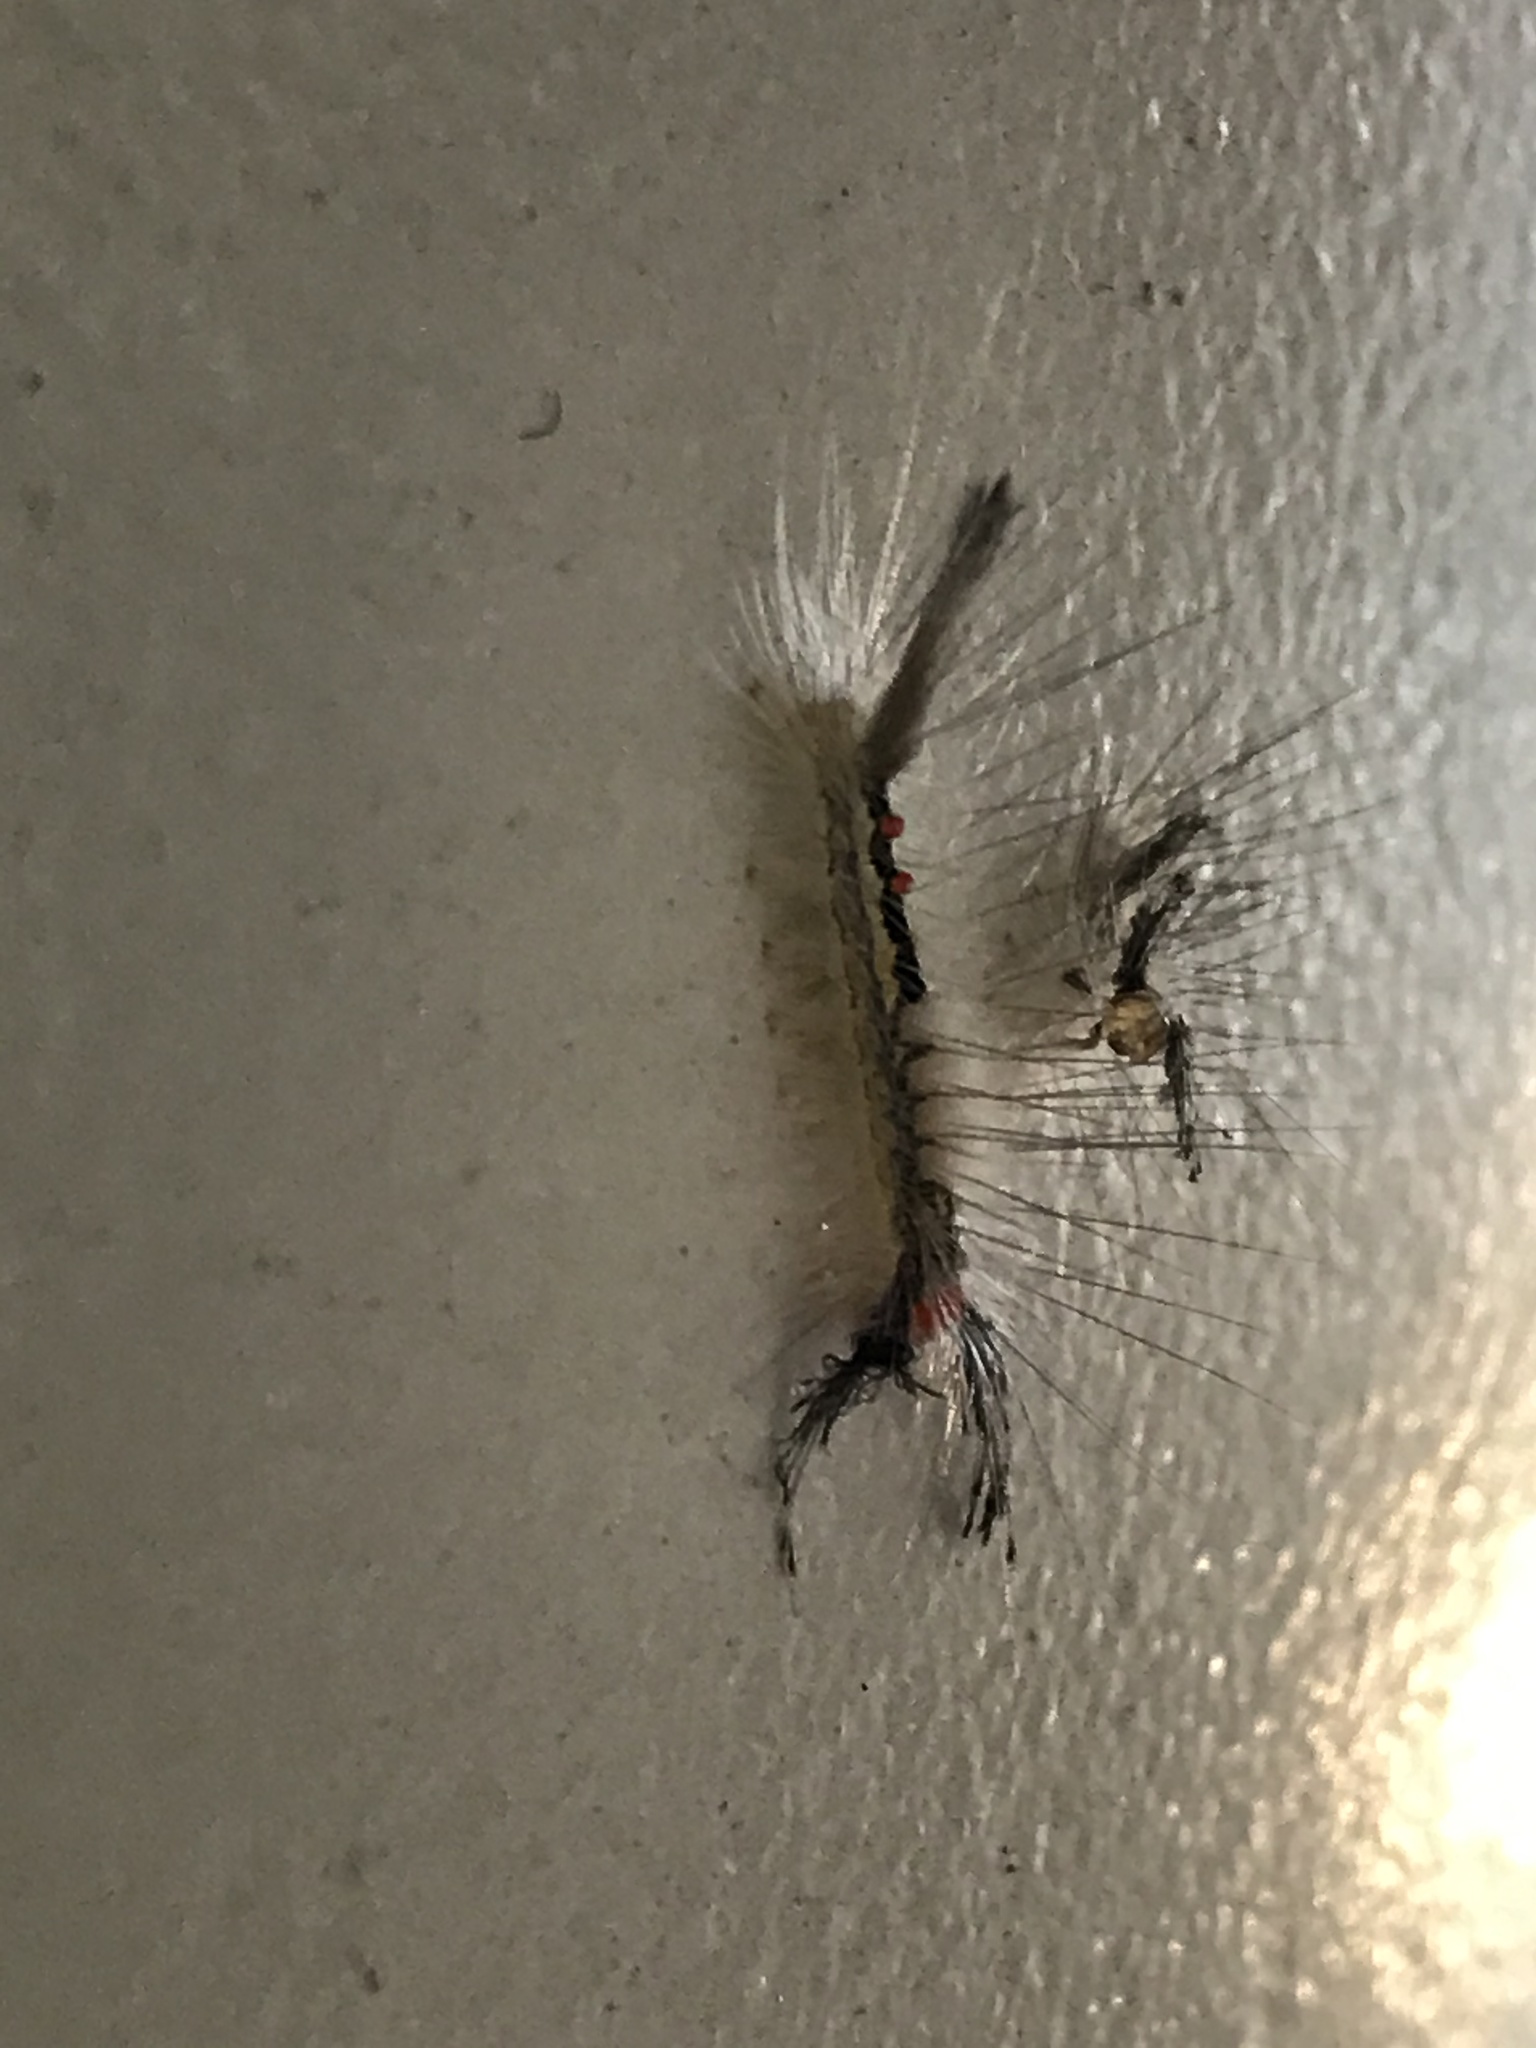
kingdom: Animalia
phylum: Arthropoda
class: Insecta
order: Lepidoptera
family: Erebidae
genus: Orgyia
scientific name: Orgyia leucostigma
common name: White-marked tussock moth
